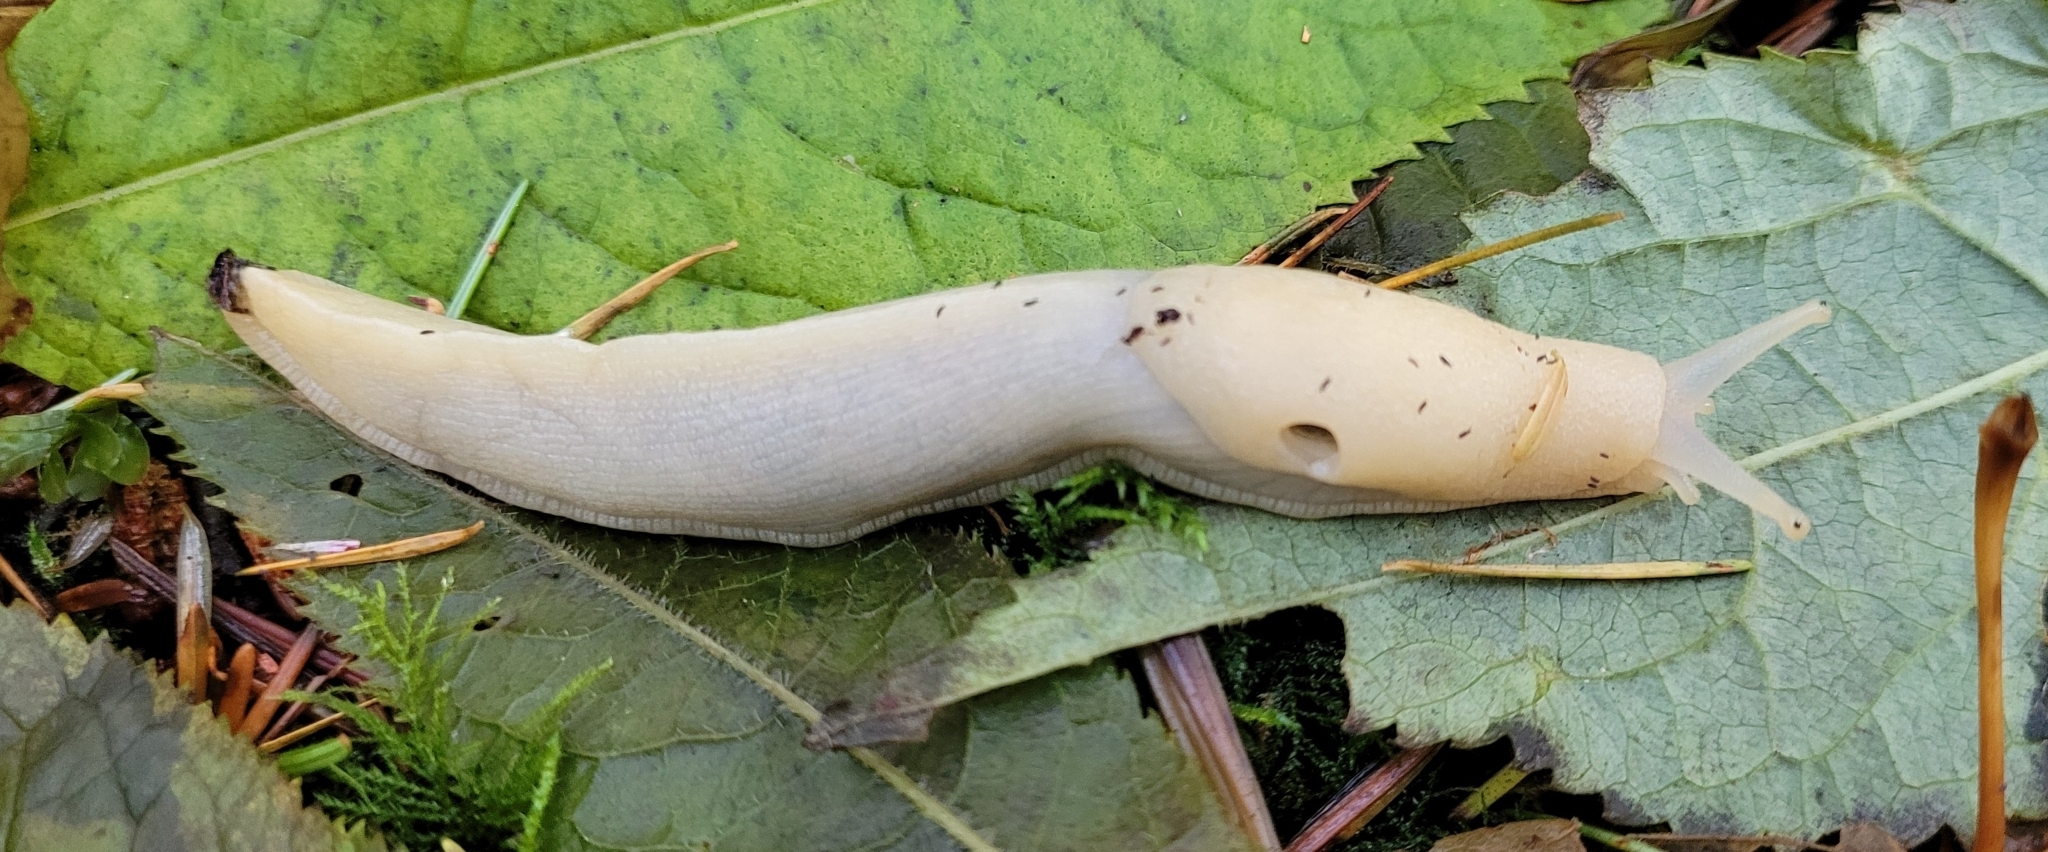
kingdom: Animalia
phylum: Mollusca
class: Gastropoda
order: Stylommatophora
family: Ariolimacidae
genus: Ariolimax
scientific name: Ariolimax columbianus
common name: Pacific banana slug
